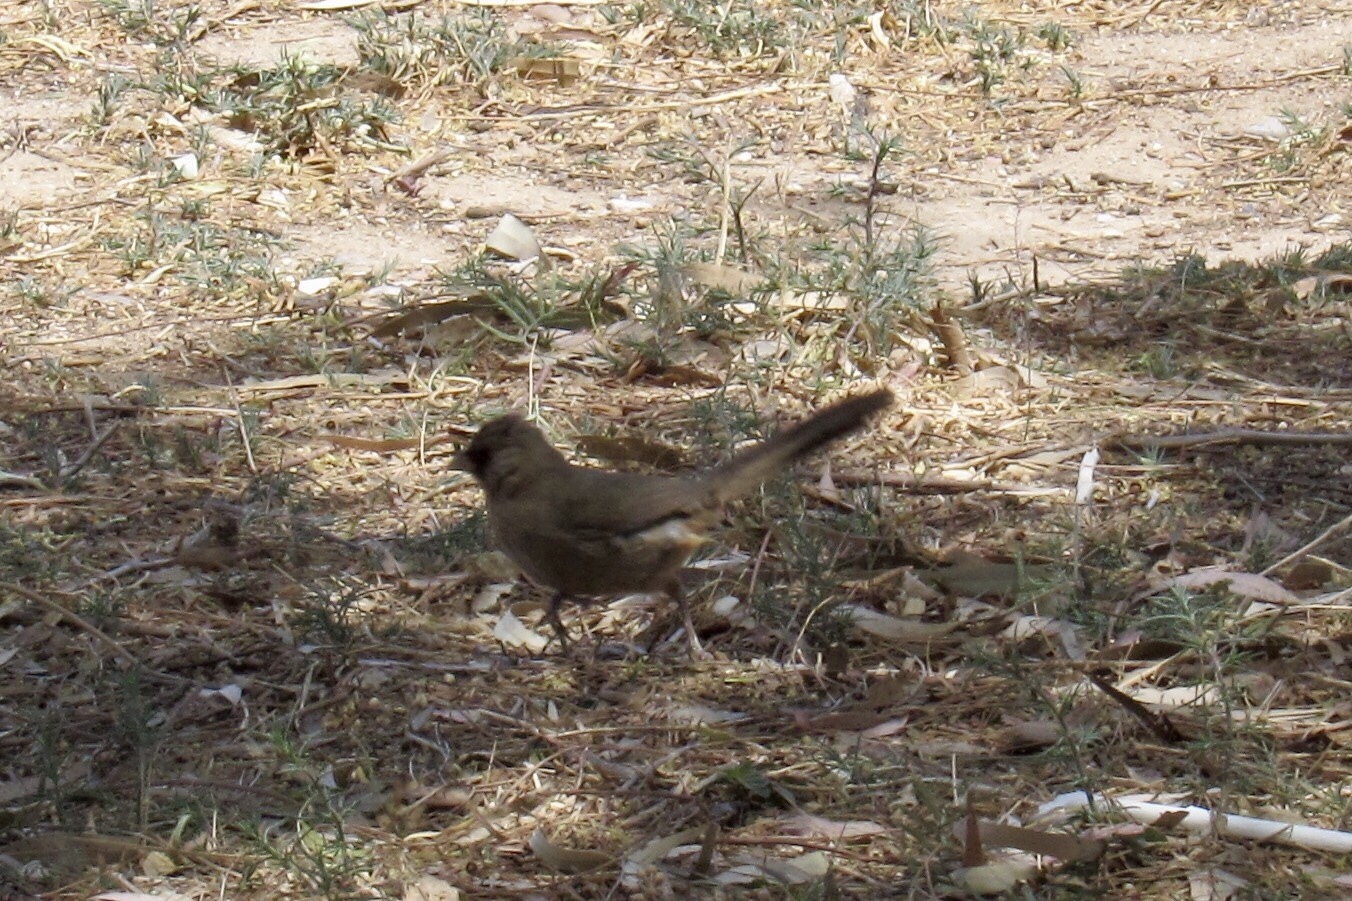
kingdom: Animalia
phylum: Chordata
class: Aves
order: Passeriformes
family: Passerellidae
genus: Melozone
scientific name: Melozone aberti
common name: Abert's towhee
